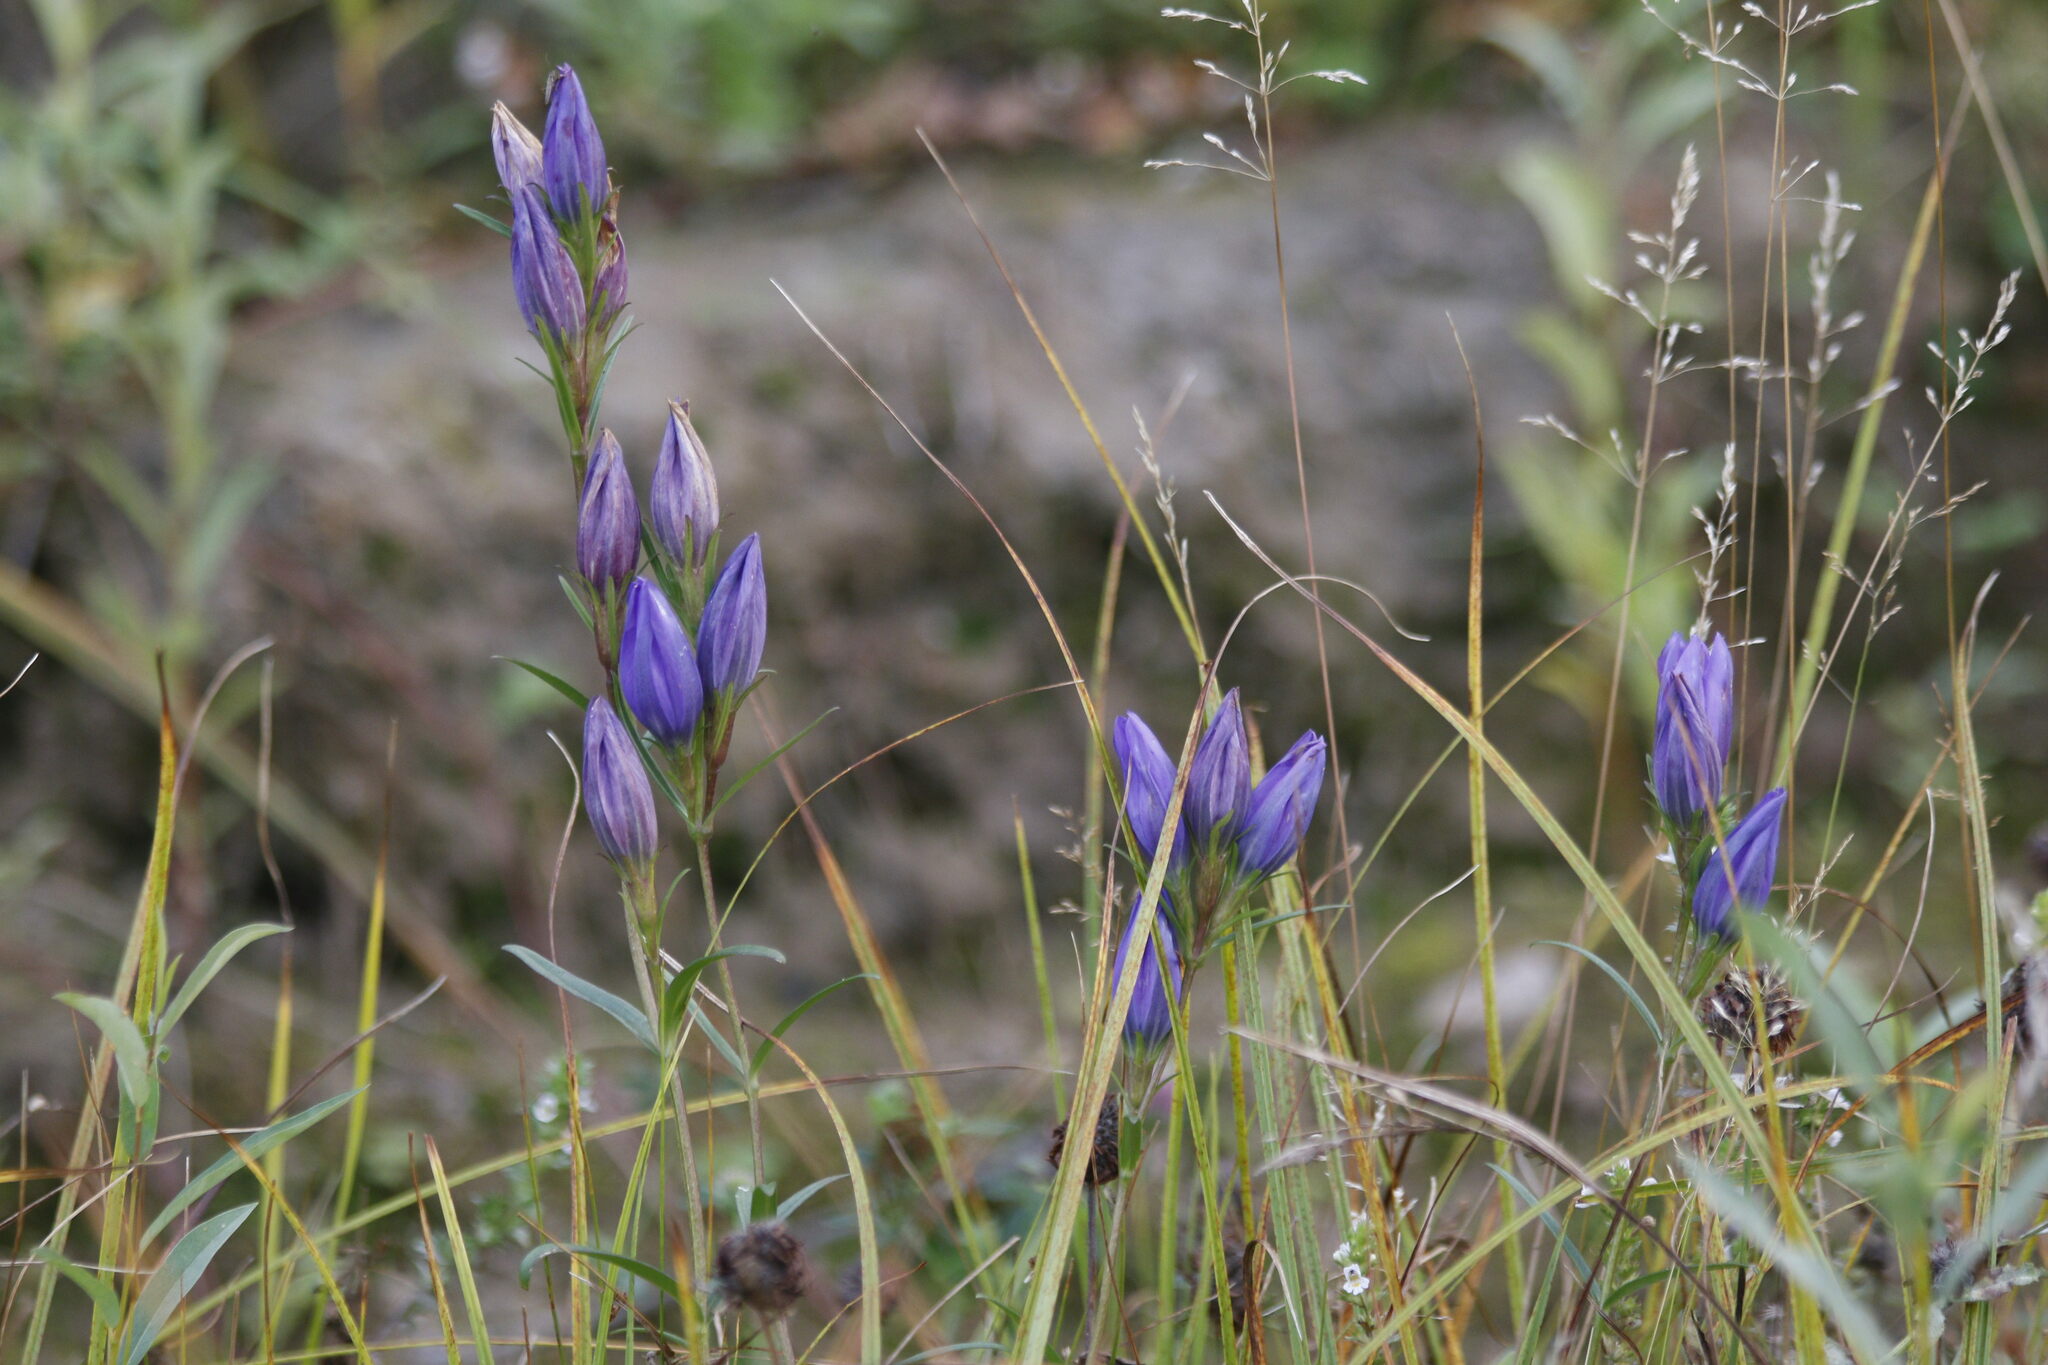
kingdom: Plantae
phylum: Tracheophyta
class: Magnoliopsida
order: Gentianales
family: Gentianaceae
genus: Gentiana
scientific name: Gentiana pneumonanthe
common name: Marsh gentian
